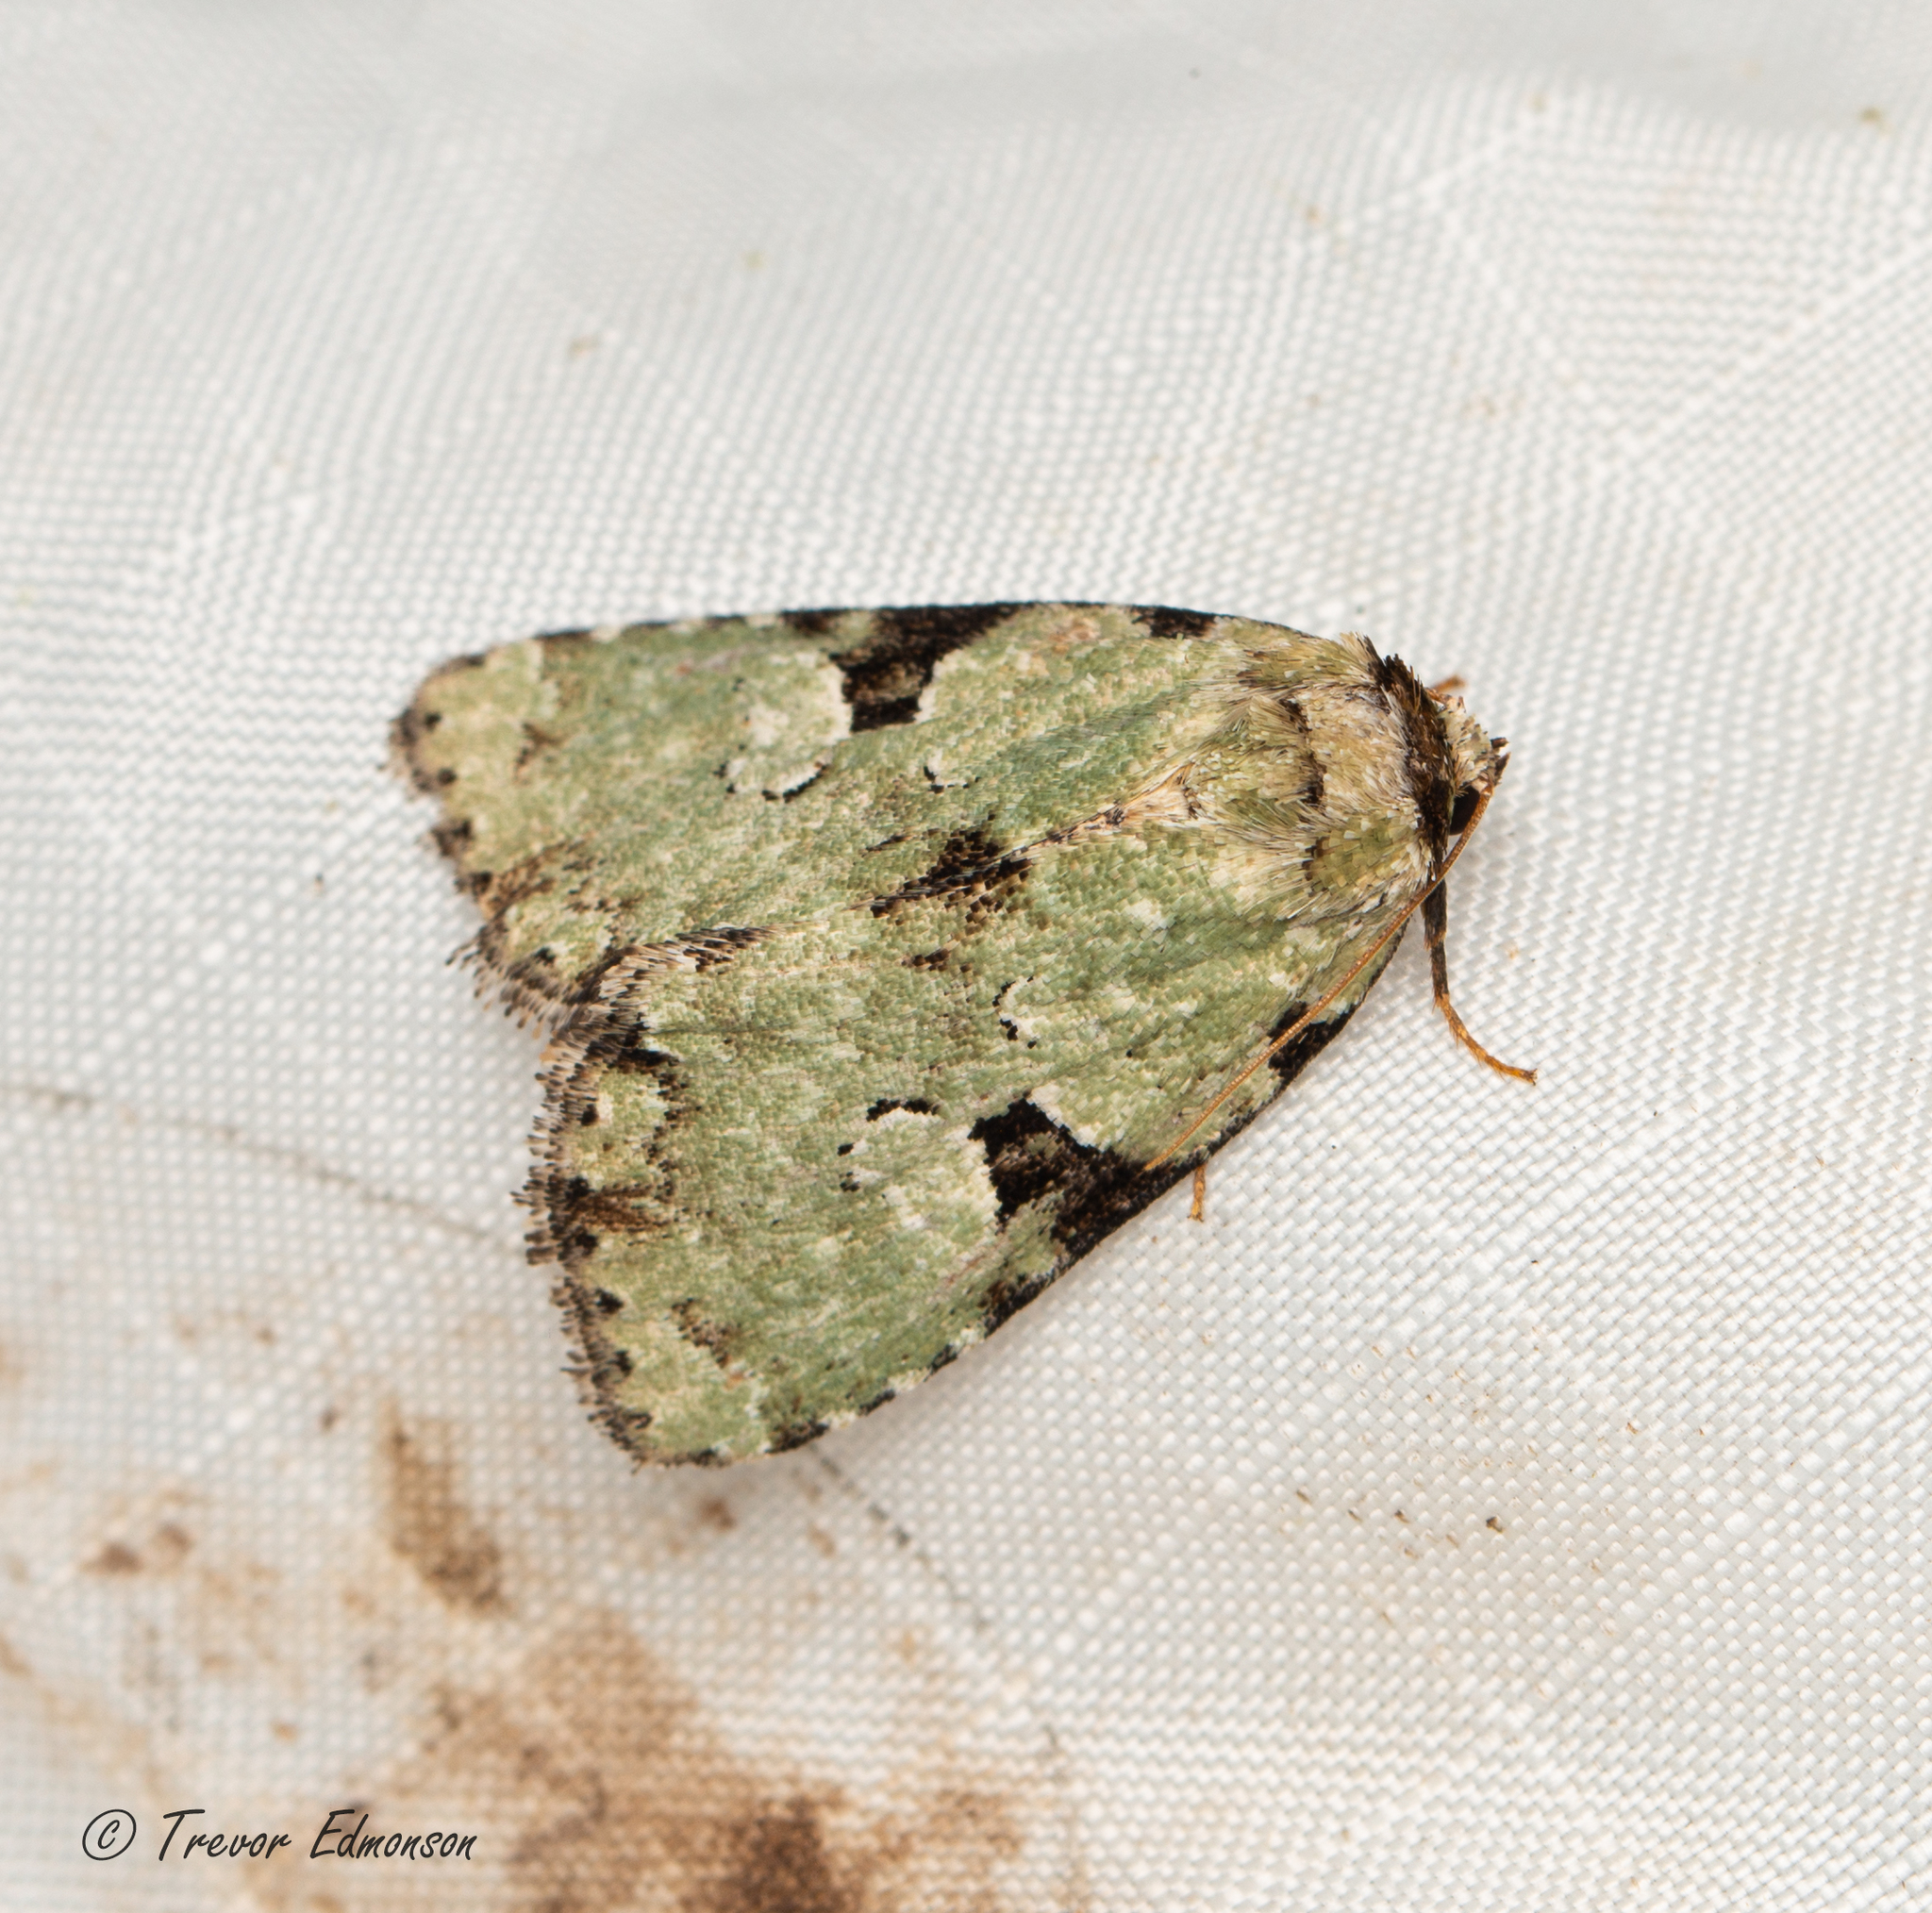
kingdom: Animalia
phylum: Arthropoda
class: Insecta
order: Lepidoptera
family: Noctuidae
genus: Leuconycta
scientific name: Leuconycta diphteroides
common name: Green leuconycta moth
